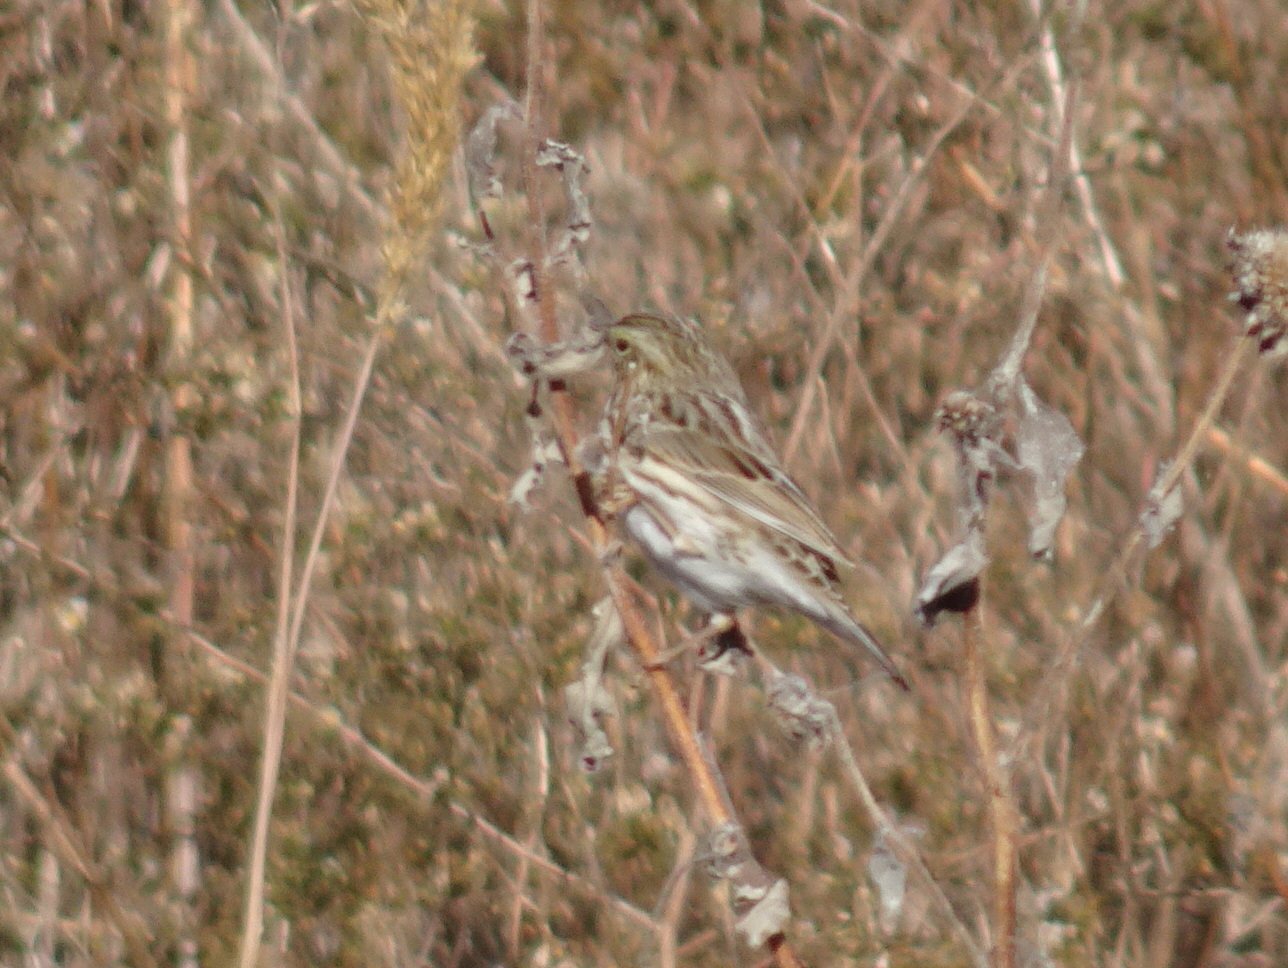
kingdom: Animalia
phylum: Chordata
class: Aves
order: Passeriformes
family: Passerellidae
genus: Passerculus
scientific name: Passerculus sandwichensis
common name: Savannah sparrow
